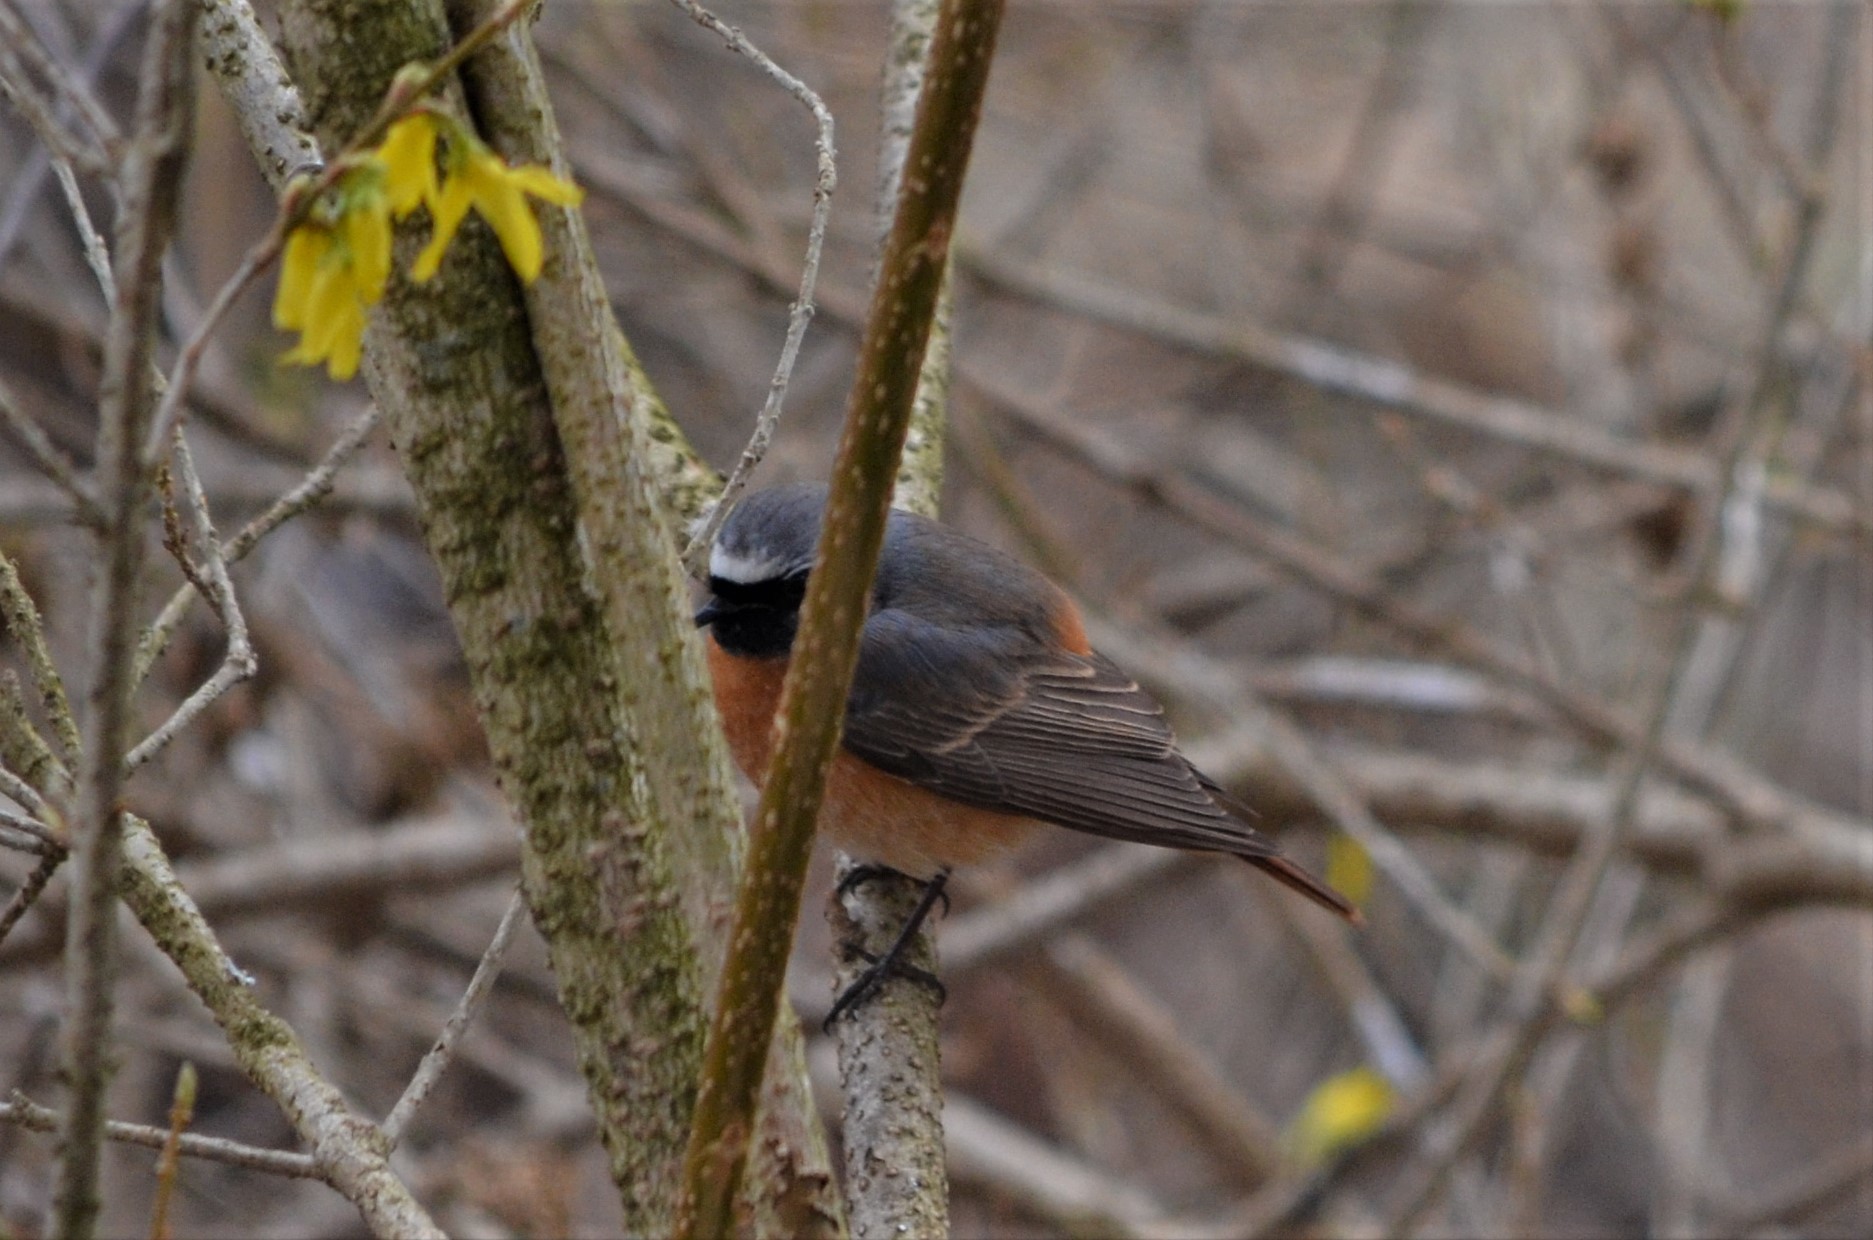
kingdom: Animalia
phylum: Chordata
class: Aves
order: Passeriformes
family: Muscicapidae
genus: Phoenicurus
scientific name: Phoenicurus phoenicurus
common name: Common redstart
